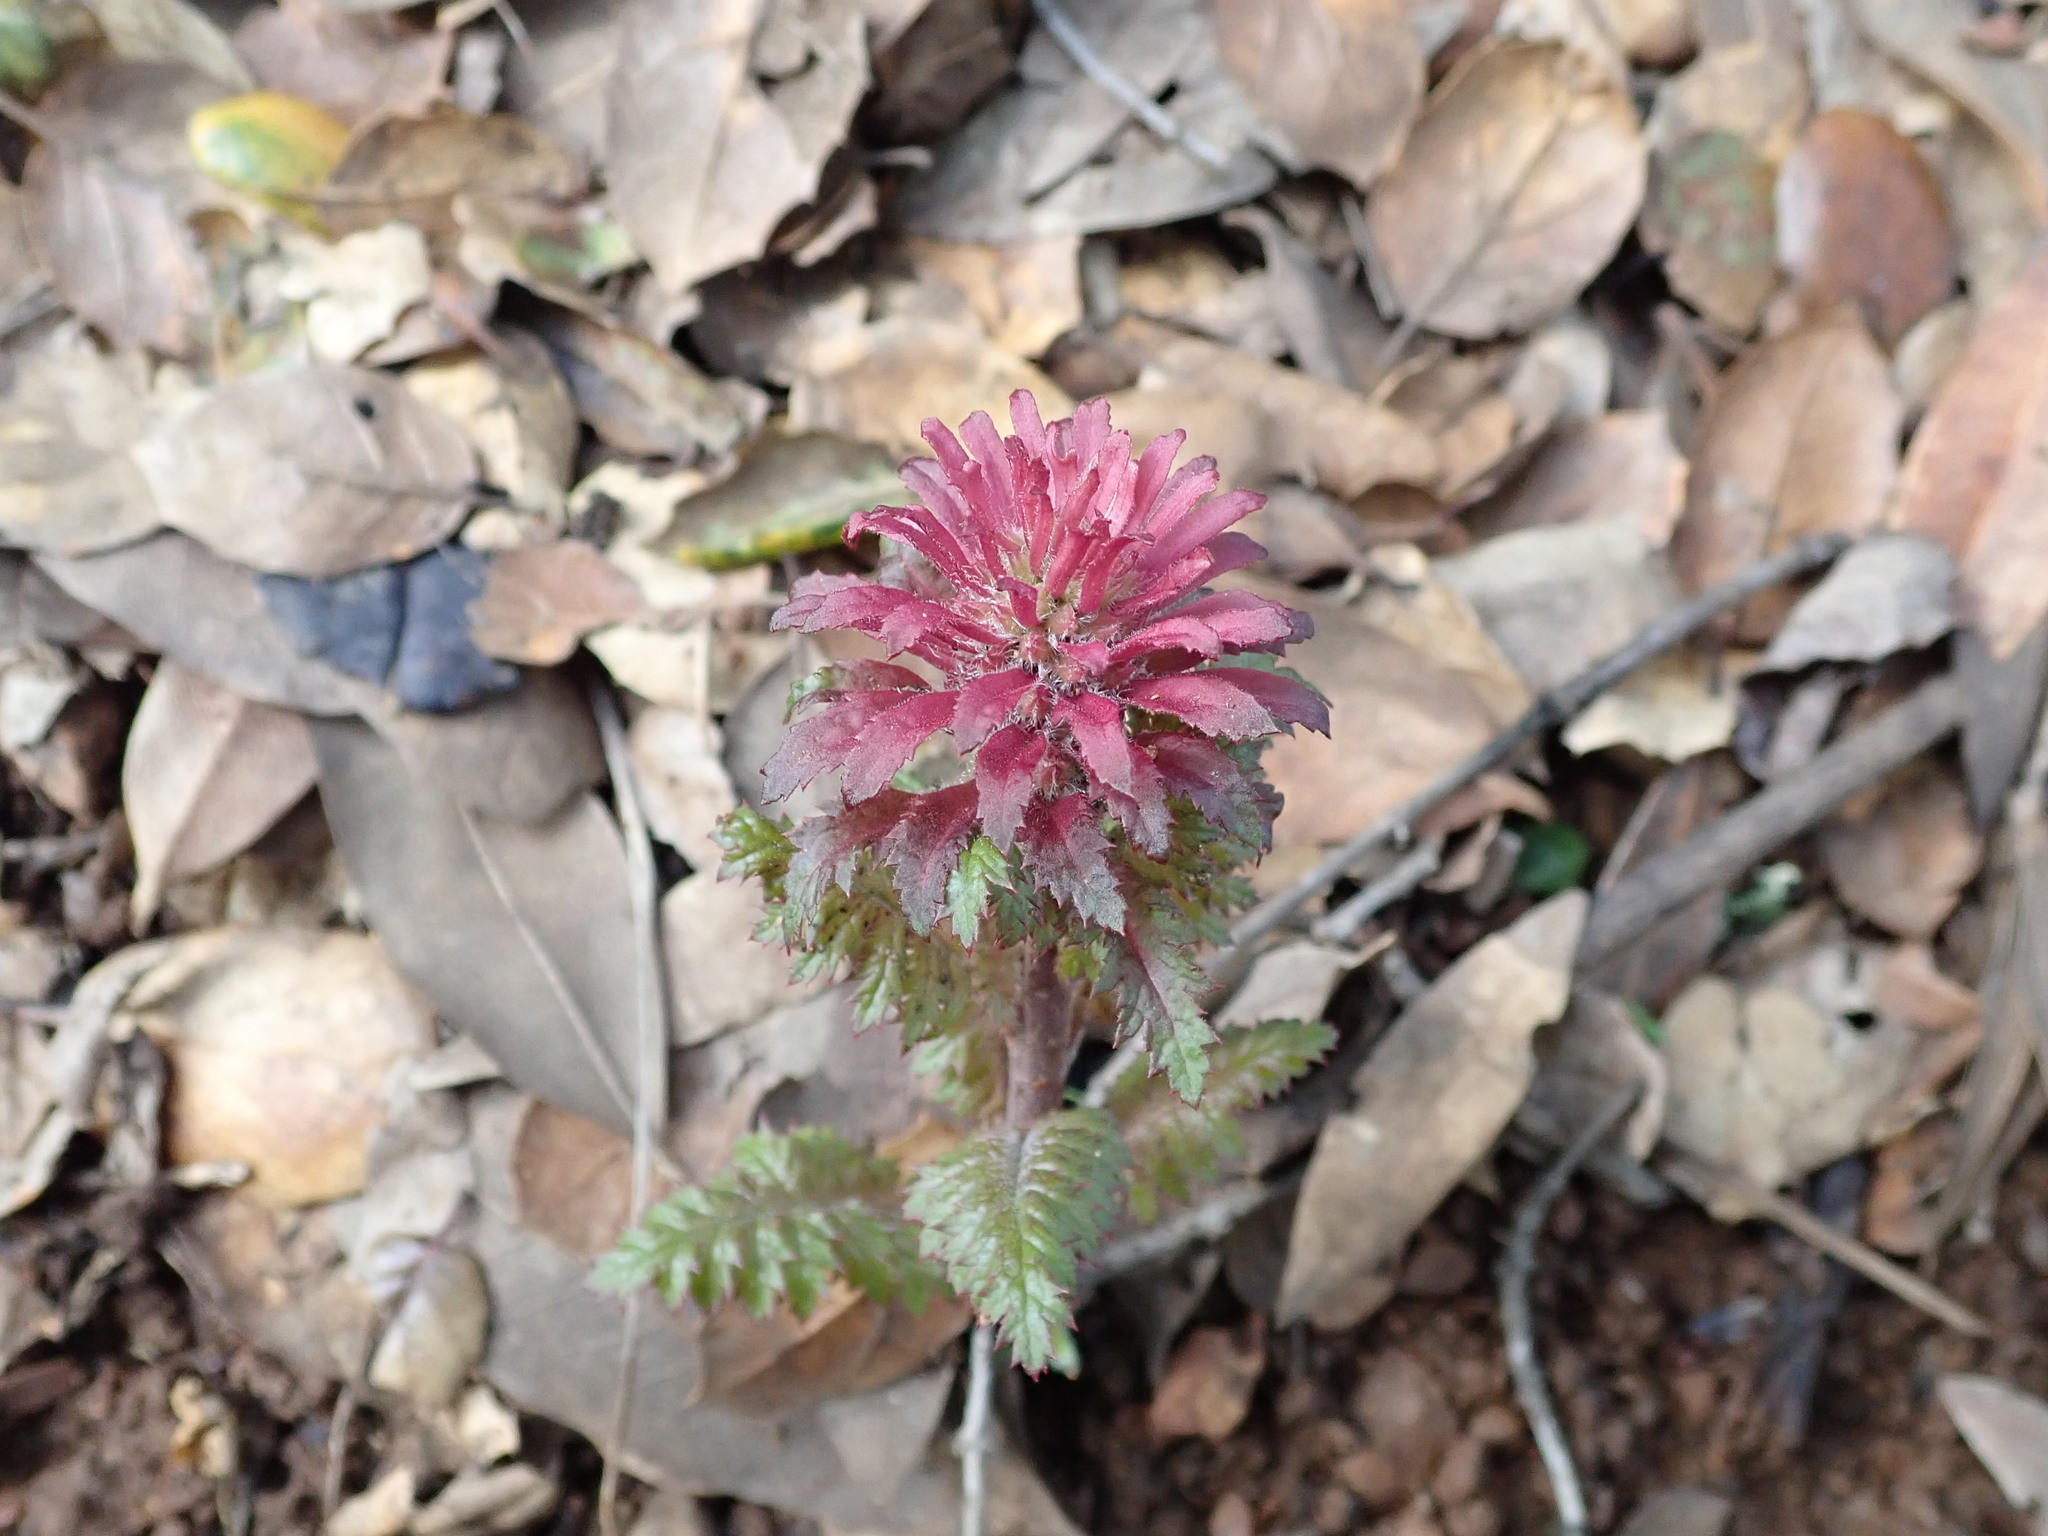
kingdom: Plantae
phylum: Tracheophyta
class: Magnoliopsida
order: Lamiales
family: Orobanchaceae
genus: Pedicularis
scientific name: Pedicularis densiflora
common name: Indian warrior
